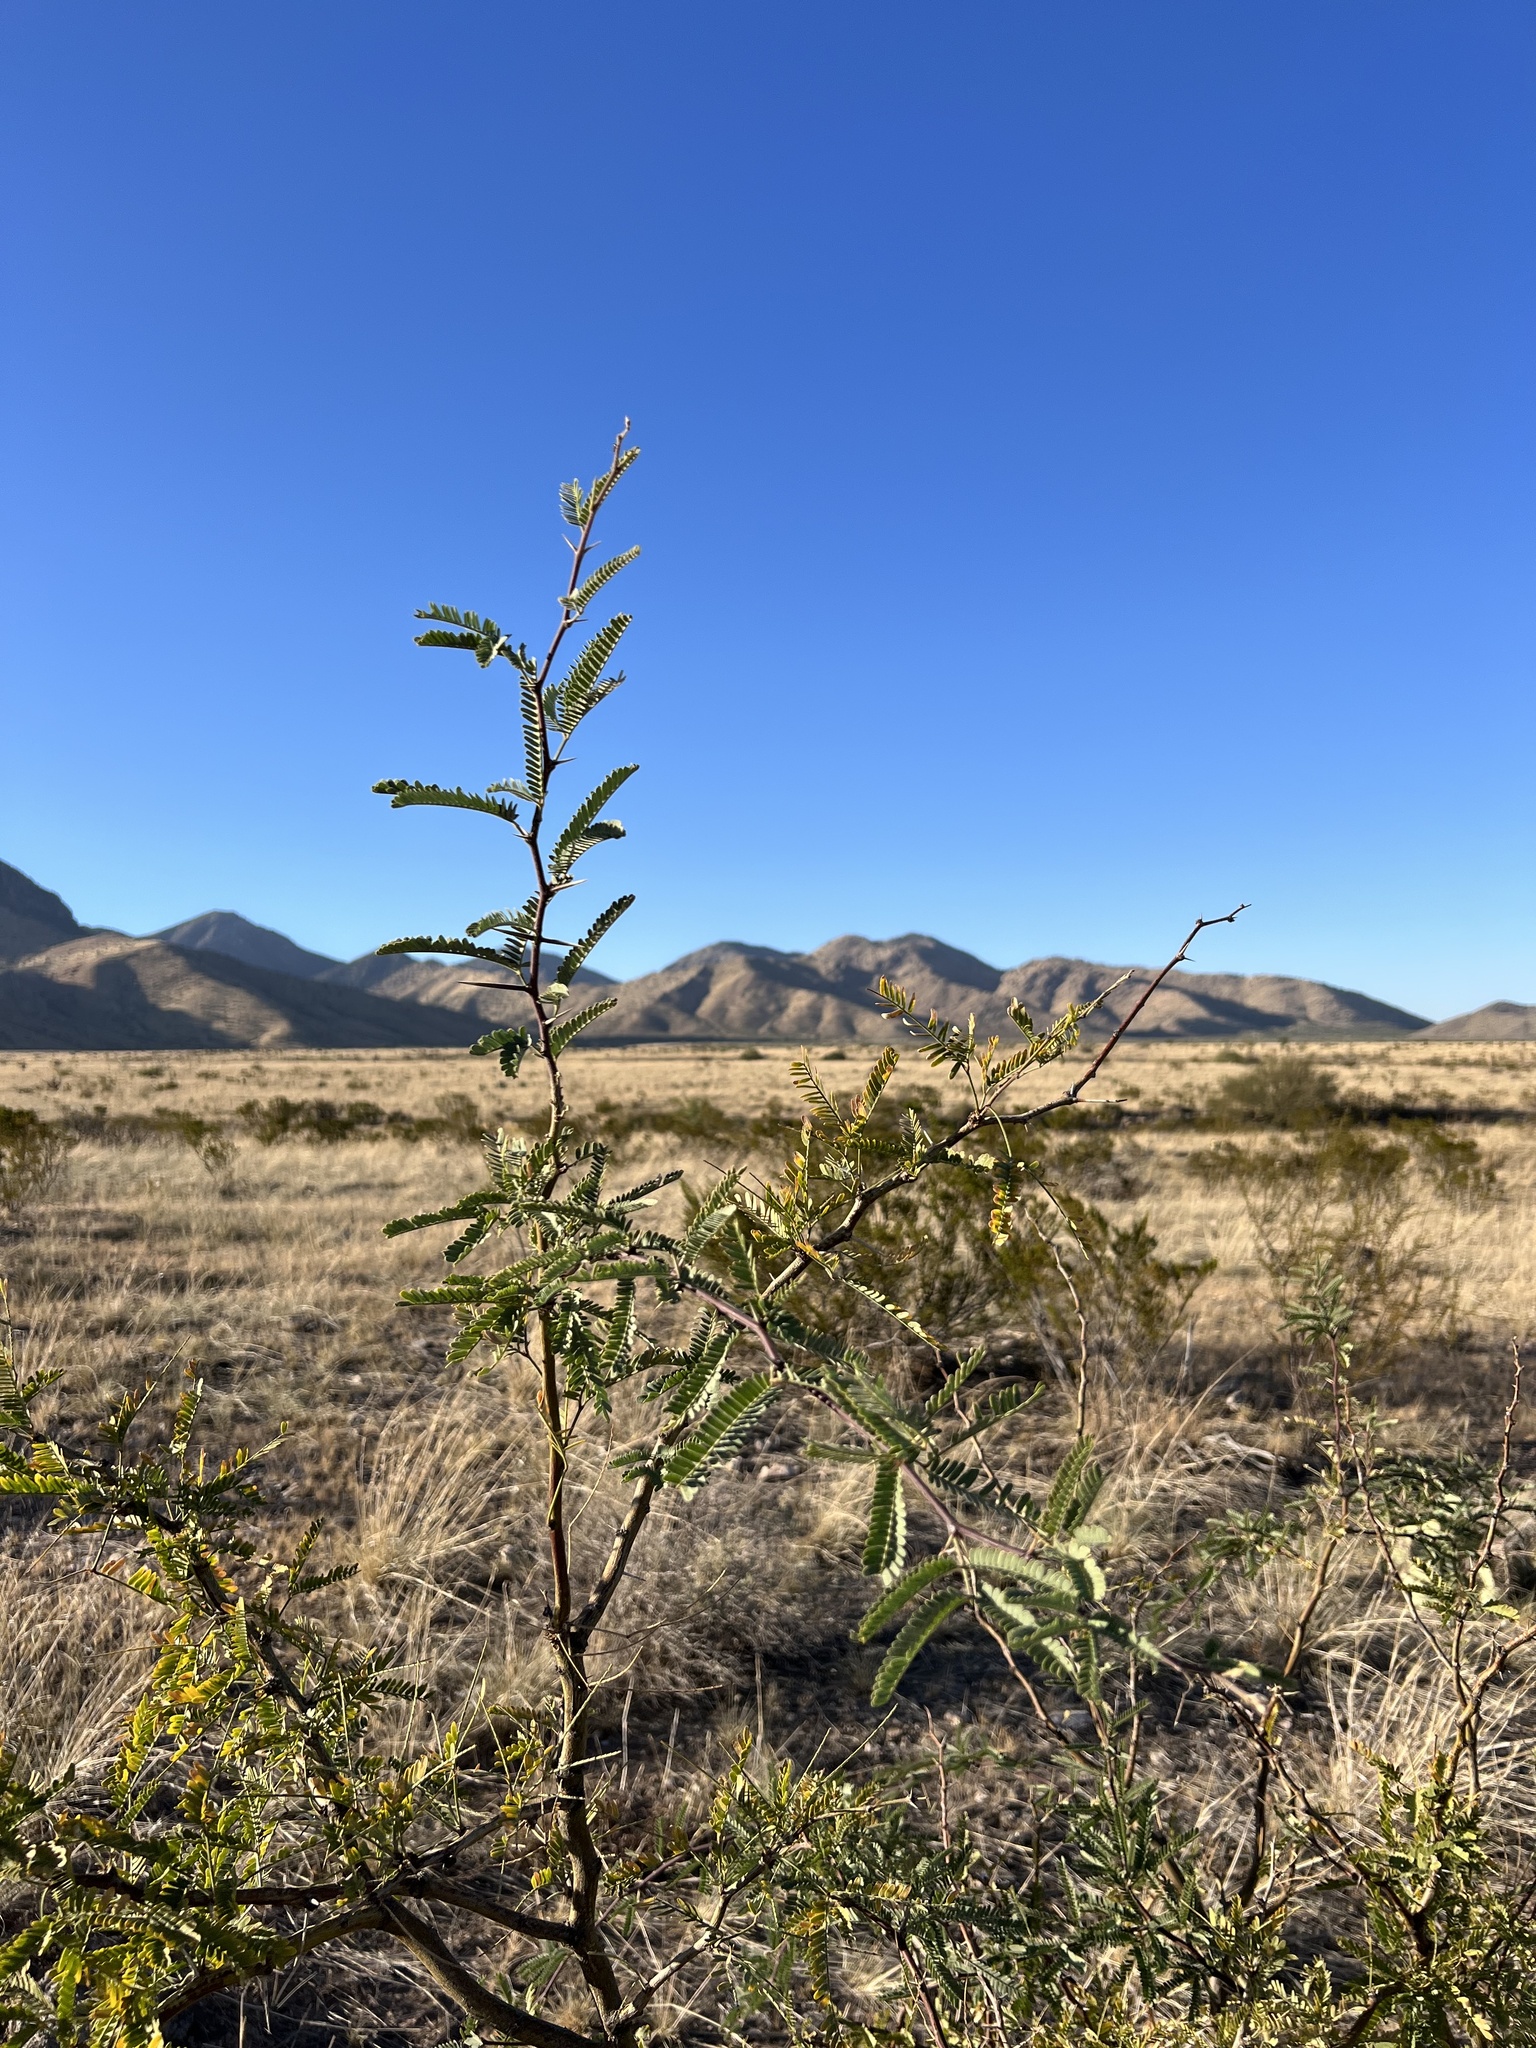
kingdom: Plantae
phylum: Tracheophyta
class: Magnoliopsida
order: Fabales
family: Fabaceae
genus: Prosopis
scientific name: Prosopis velutina
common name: Velvet mesquite
